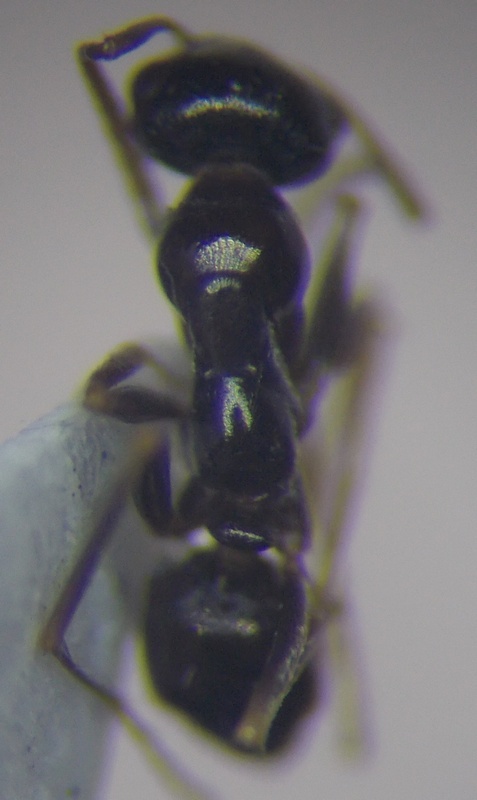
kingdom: Animalia
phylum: Arthropoda
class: Insecta
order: Hymenoptera
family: Formicidae
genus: Proformica
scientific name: Proformica epinotalis
